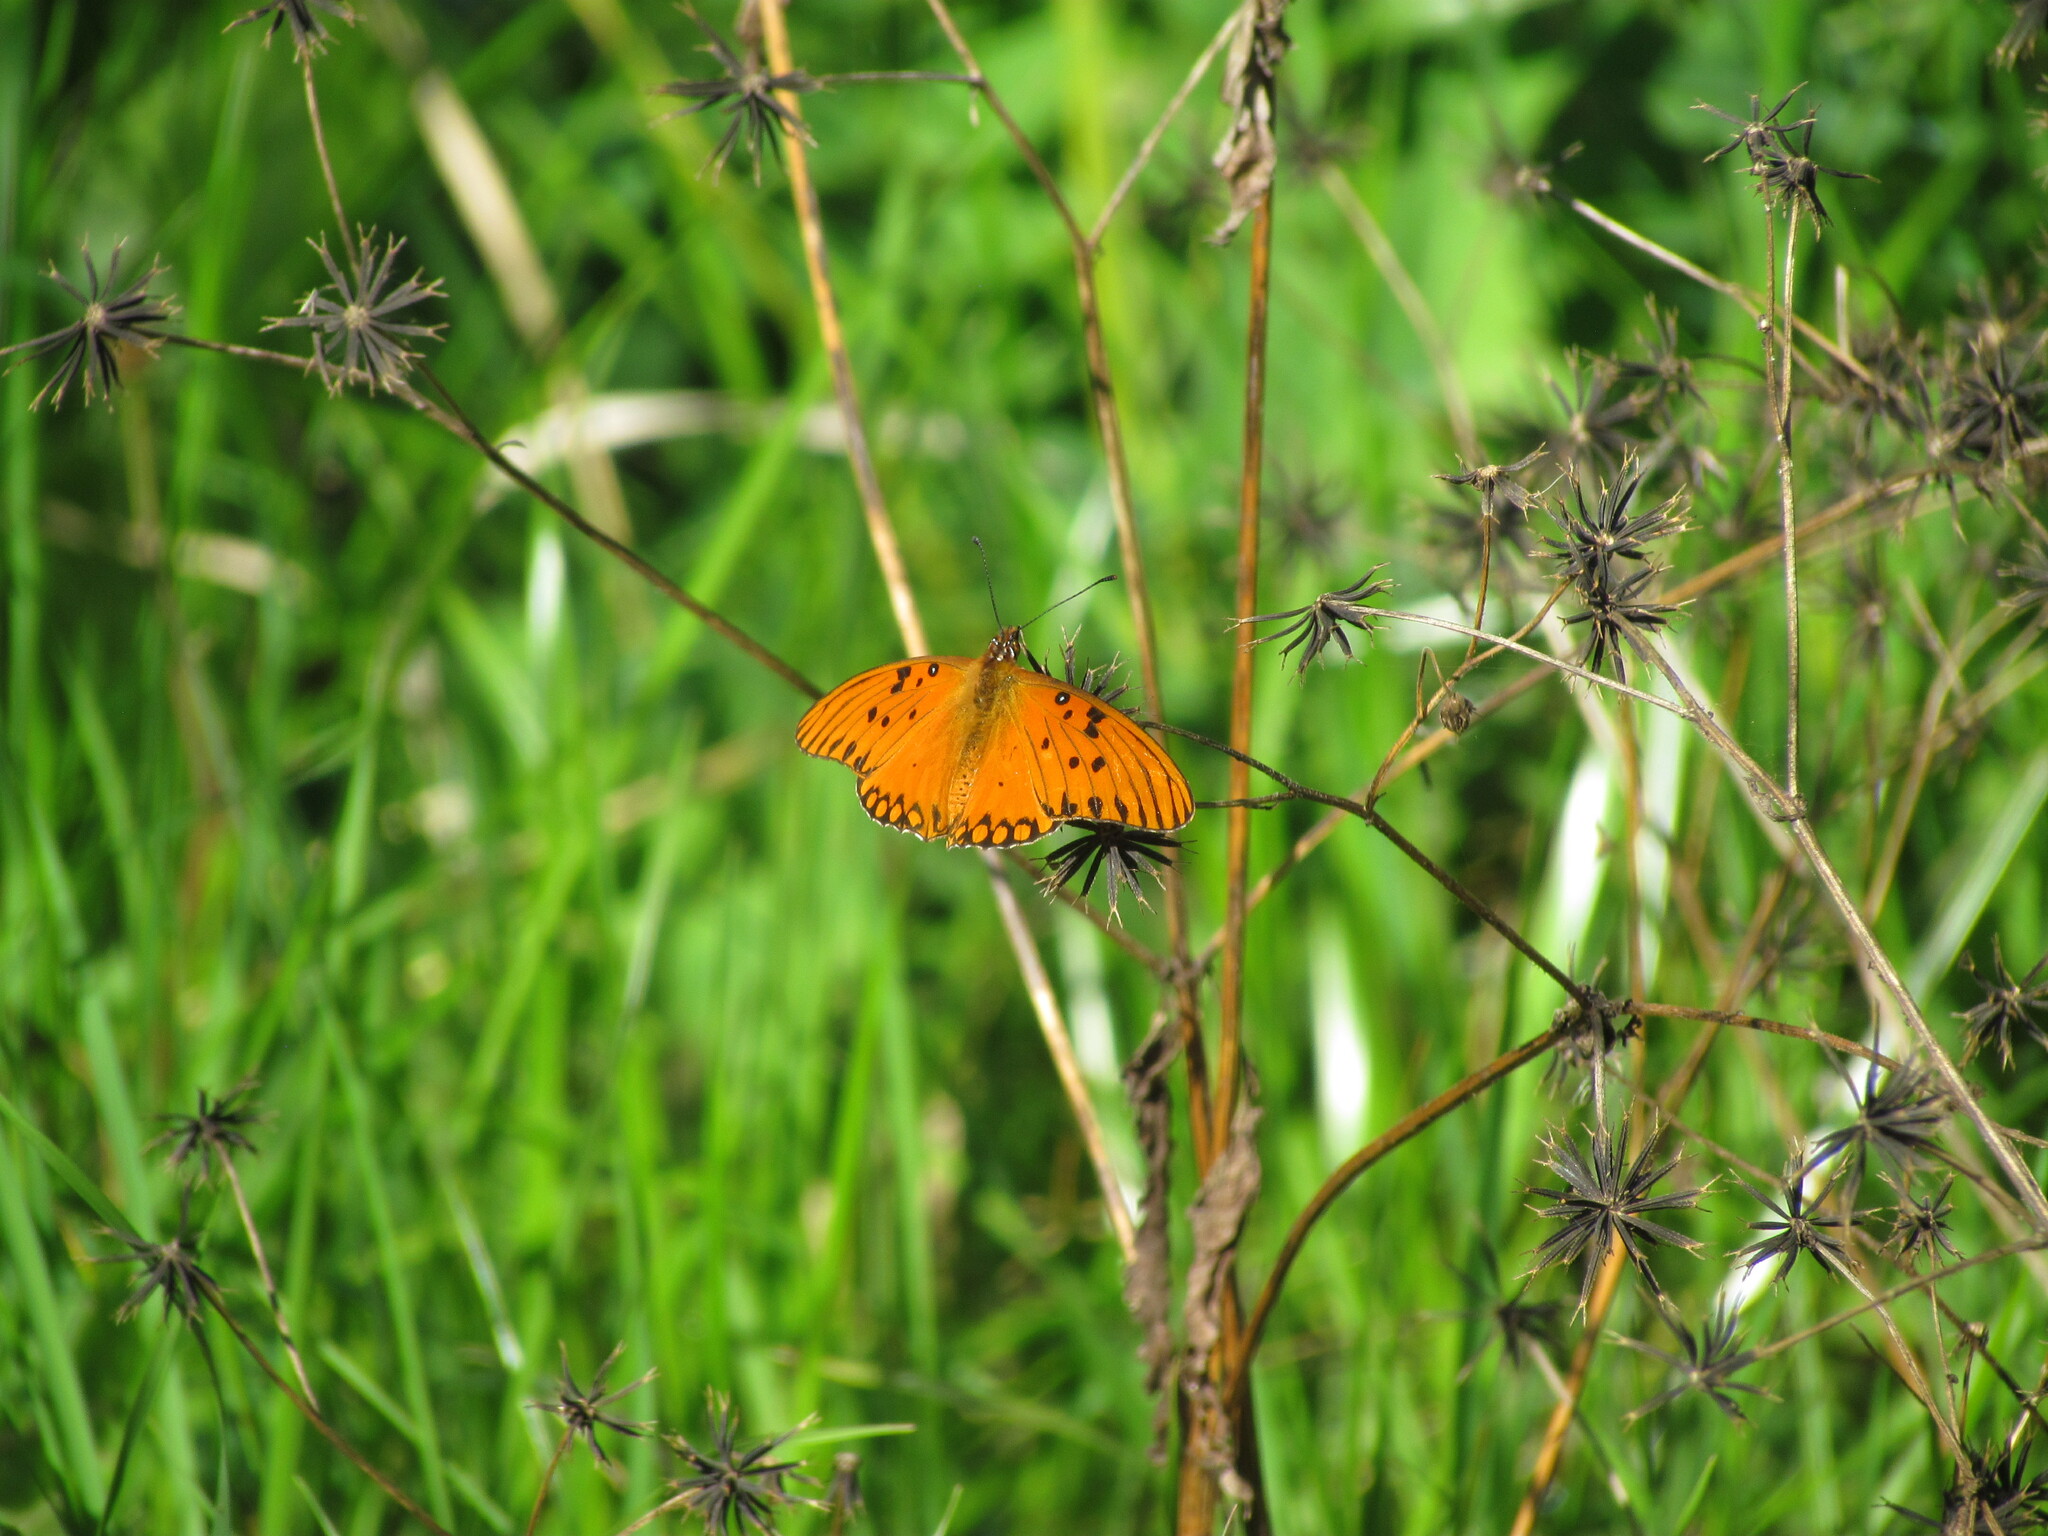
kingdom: Animalia
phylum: Arthropoda
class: Insecta
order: Lepidoptera
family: Nymphalidae
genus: Dione
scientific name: Dione vanillae
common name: Gulf fritillary
